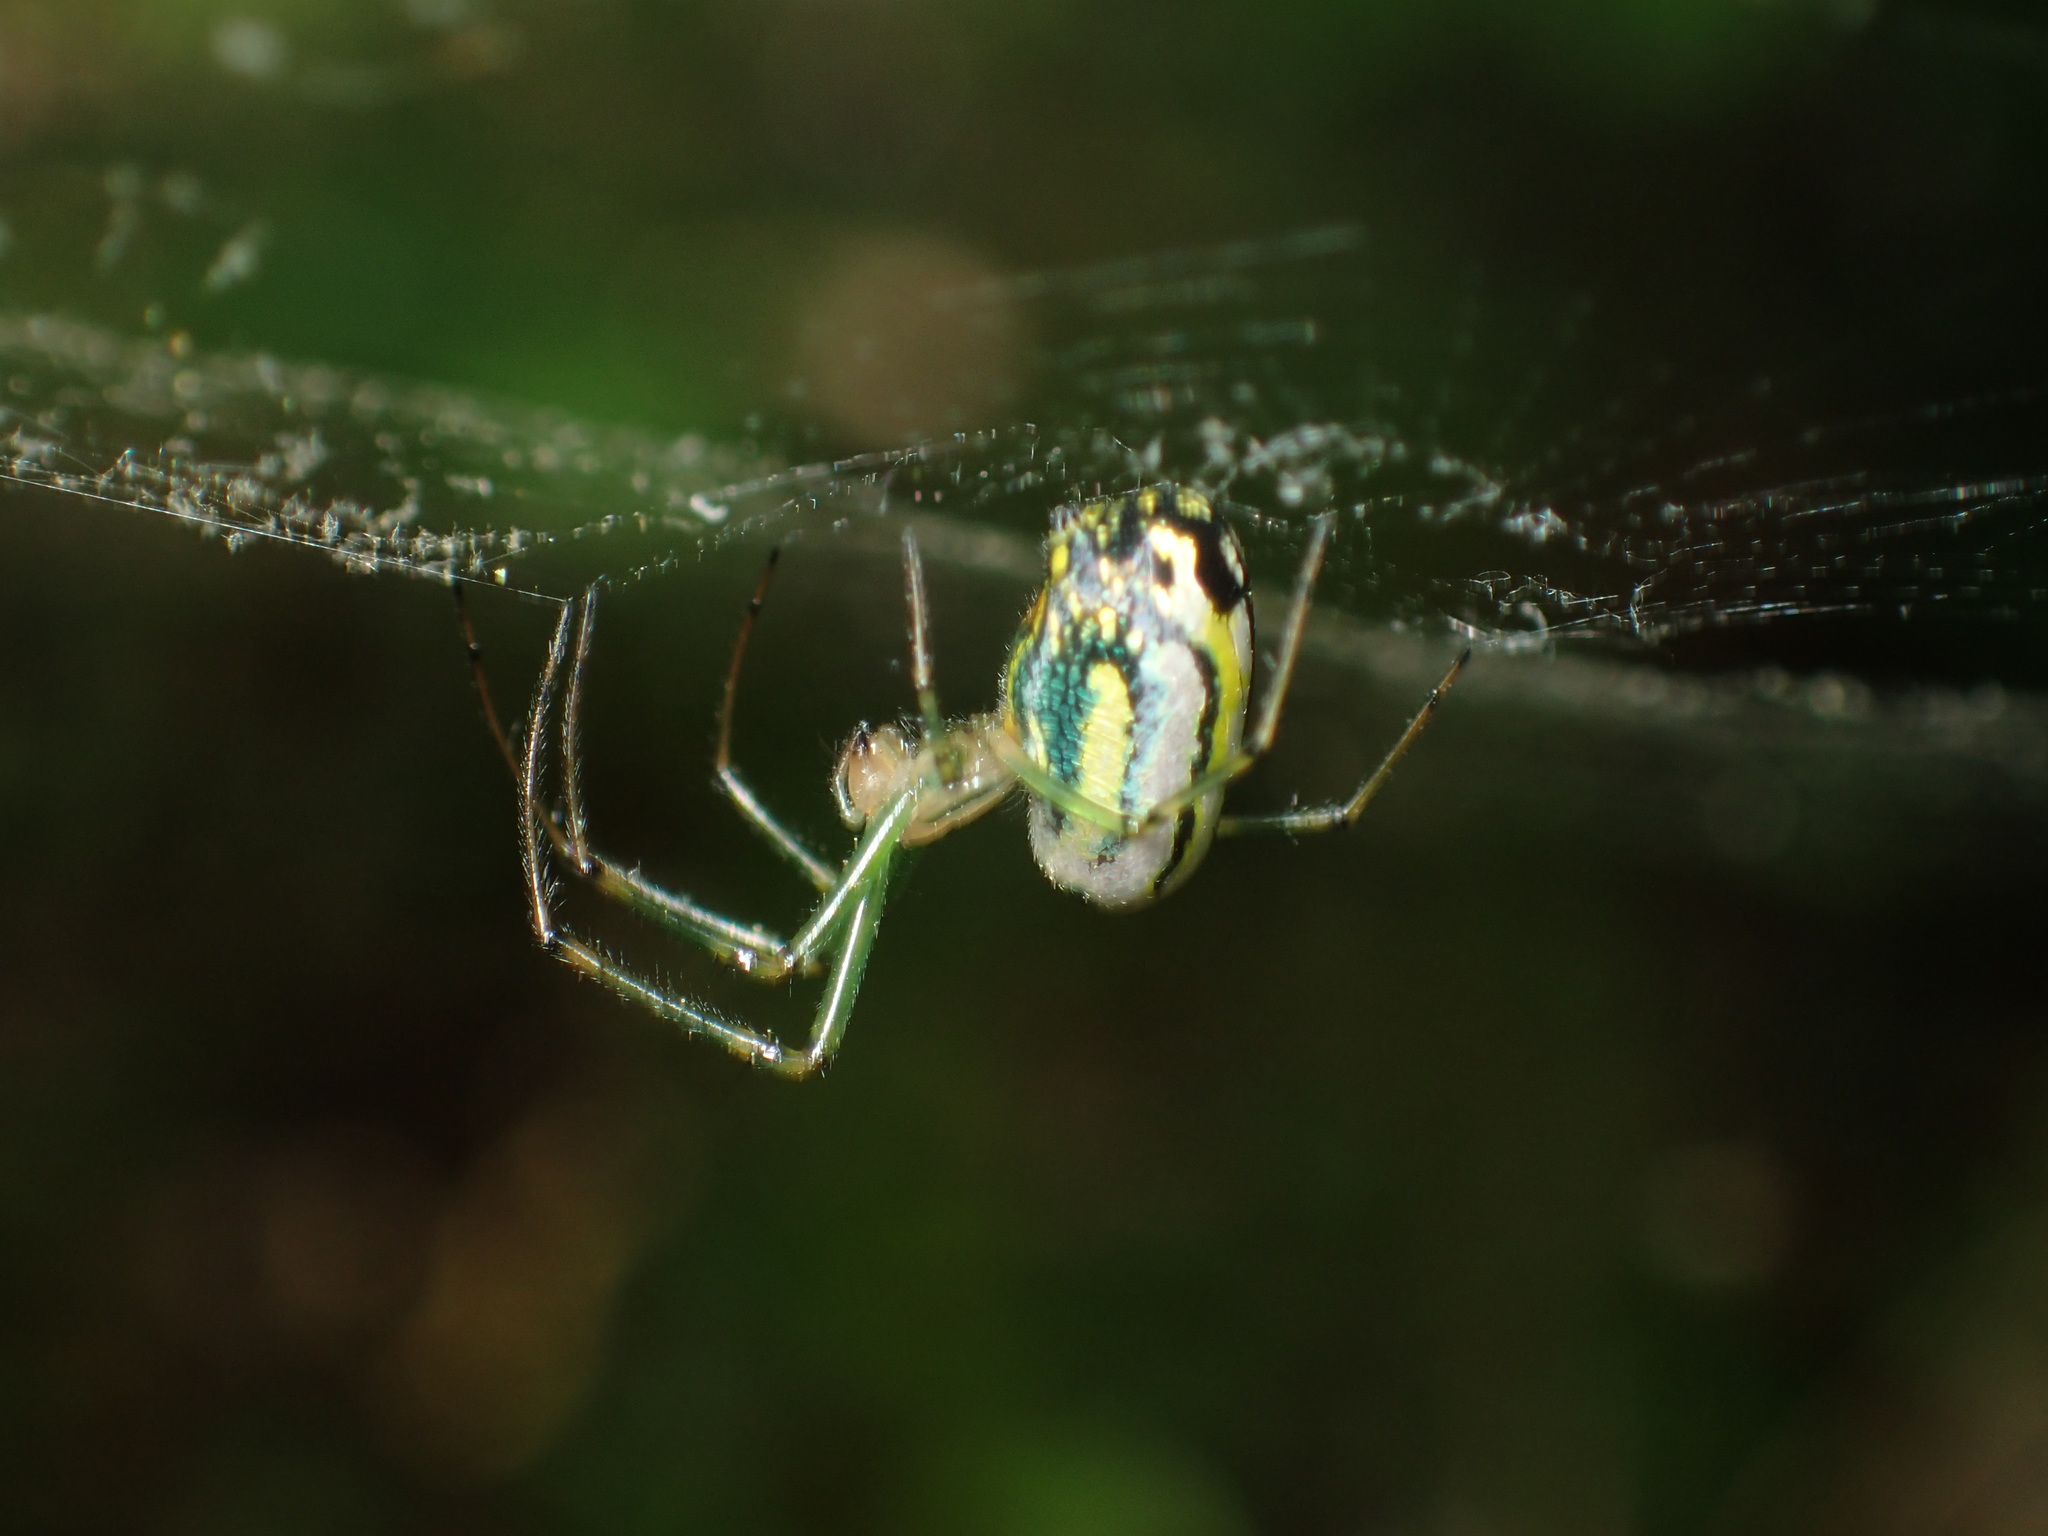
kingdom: Animalia
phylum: Arthropoda
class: Arachnida
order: Araneae
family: Tetragnathidae
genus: Leucauge
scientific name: Leucauge venusta
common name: Longjawed orb weavers
